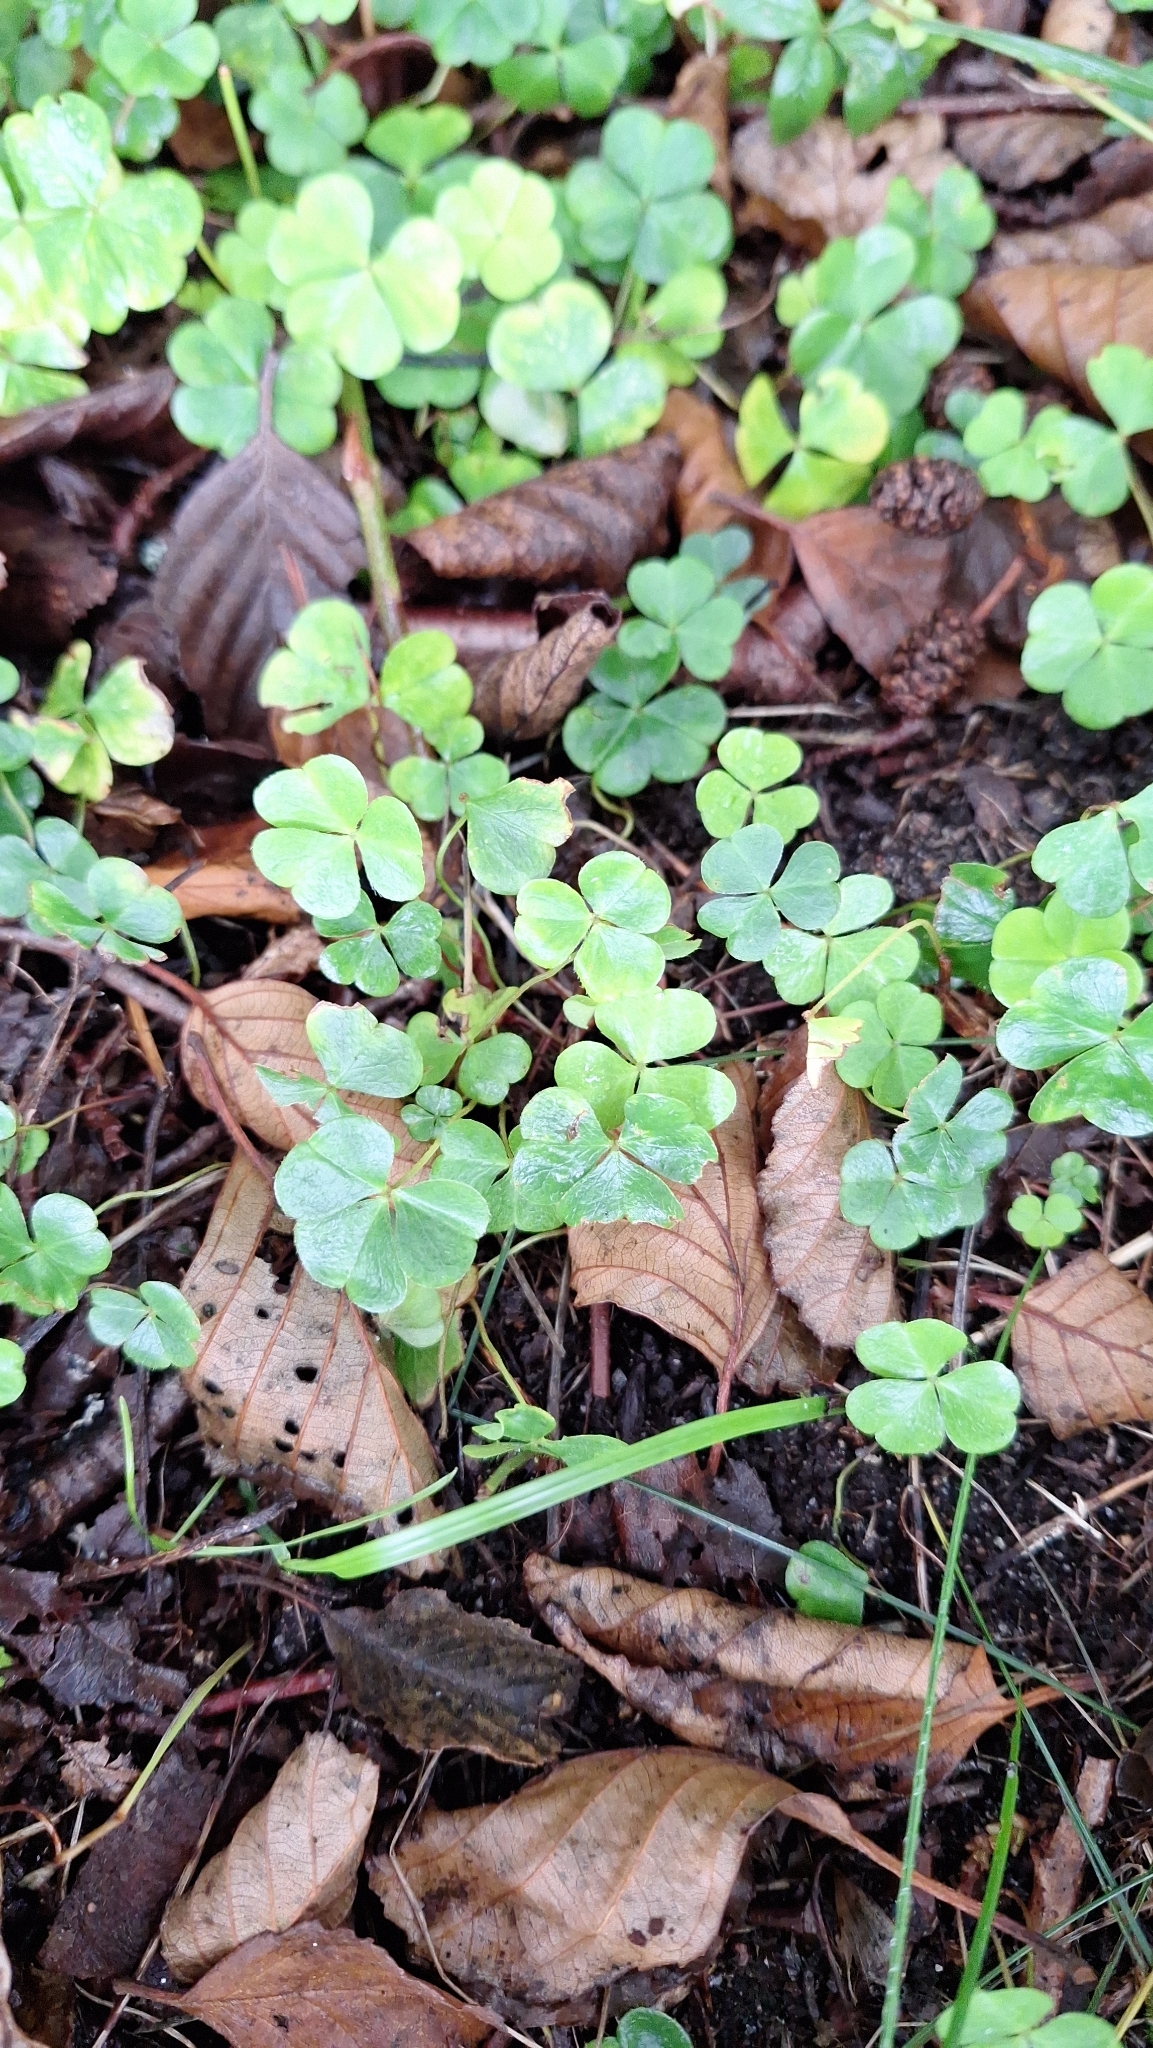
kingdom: Plantae
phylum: Tracheophyta
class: Magnoliopsida
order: Oxalidales
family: Oxalidaceae
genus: Oxalis
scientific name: Oxalis acetosella
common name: Wood-sorrel
